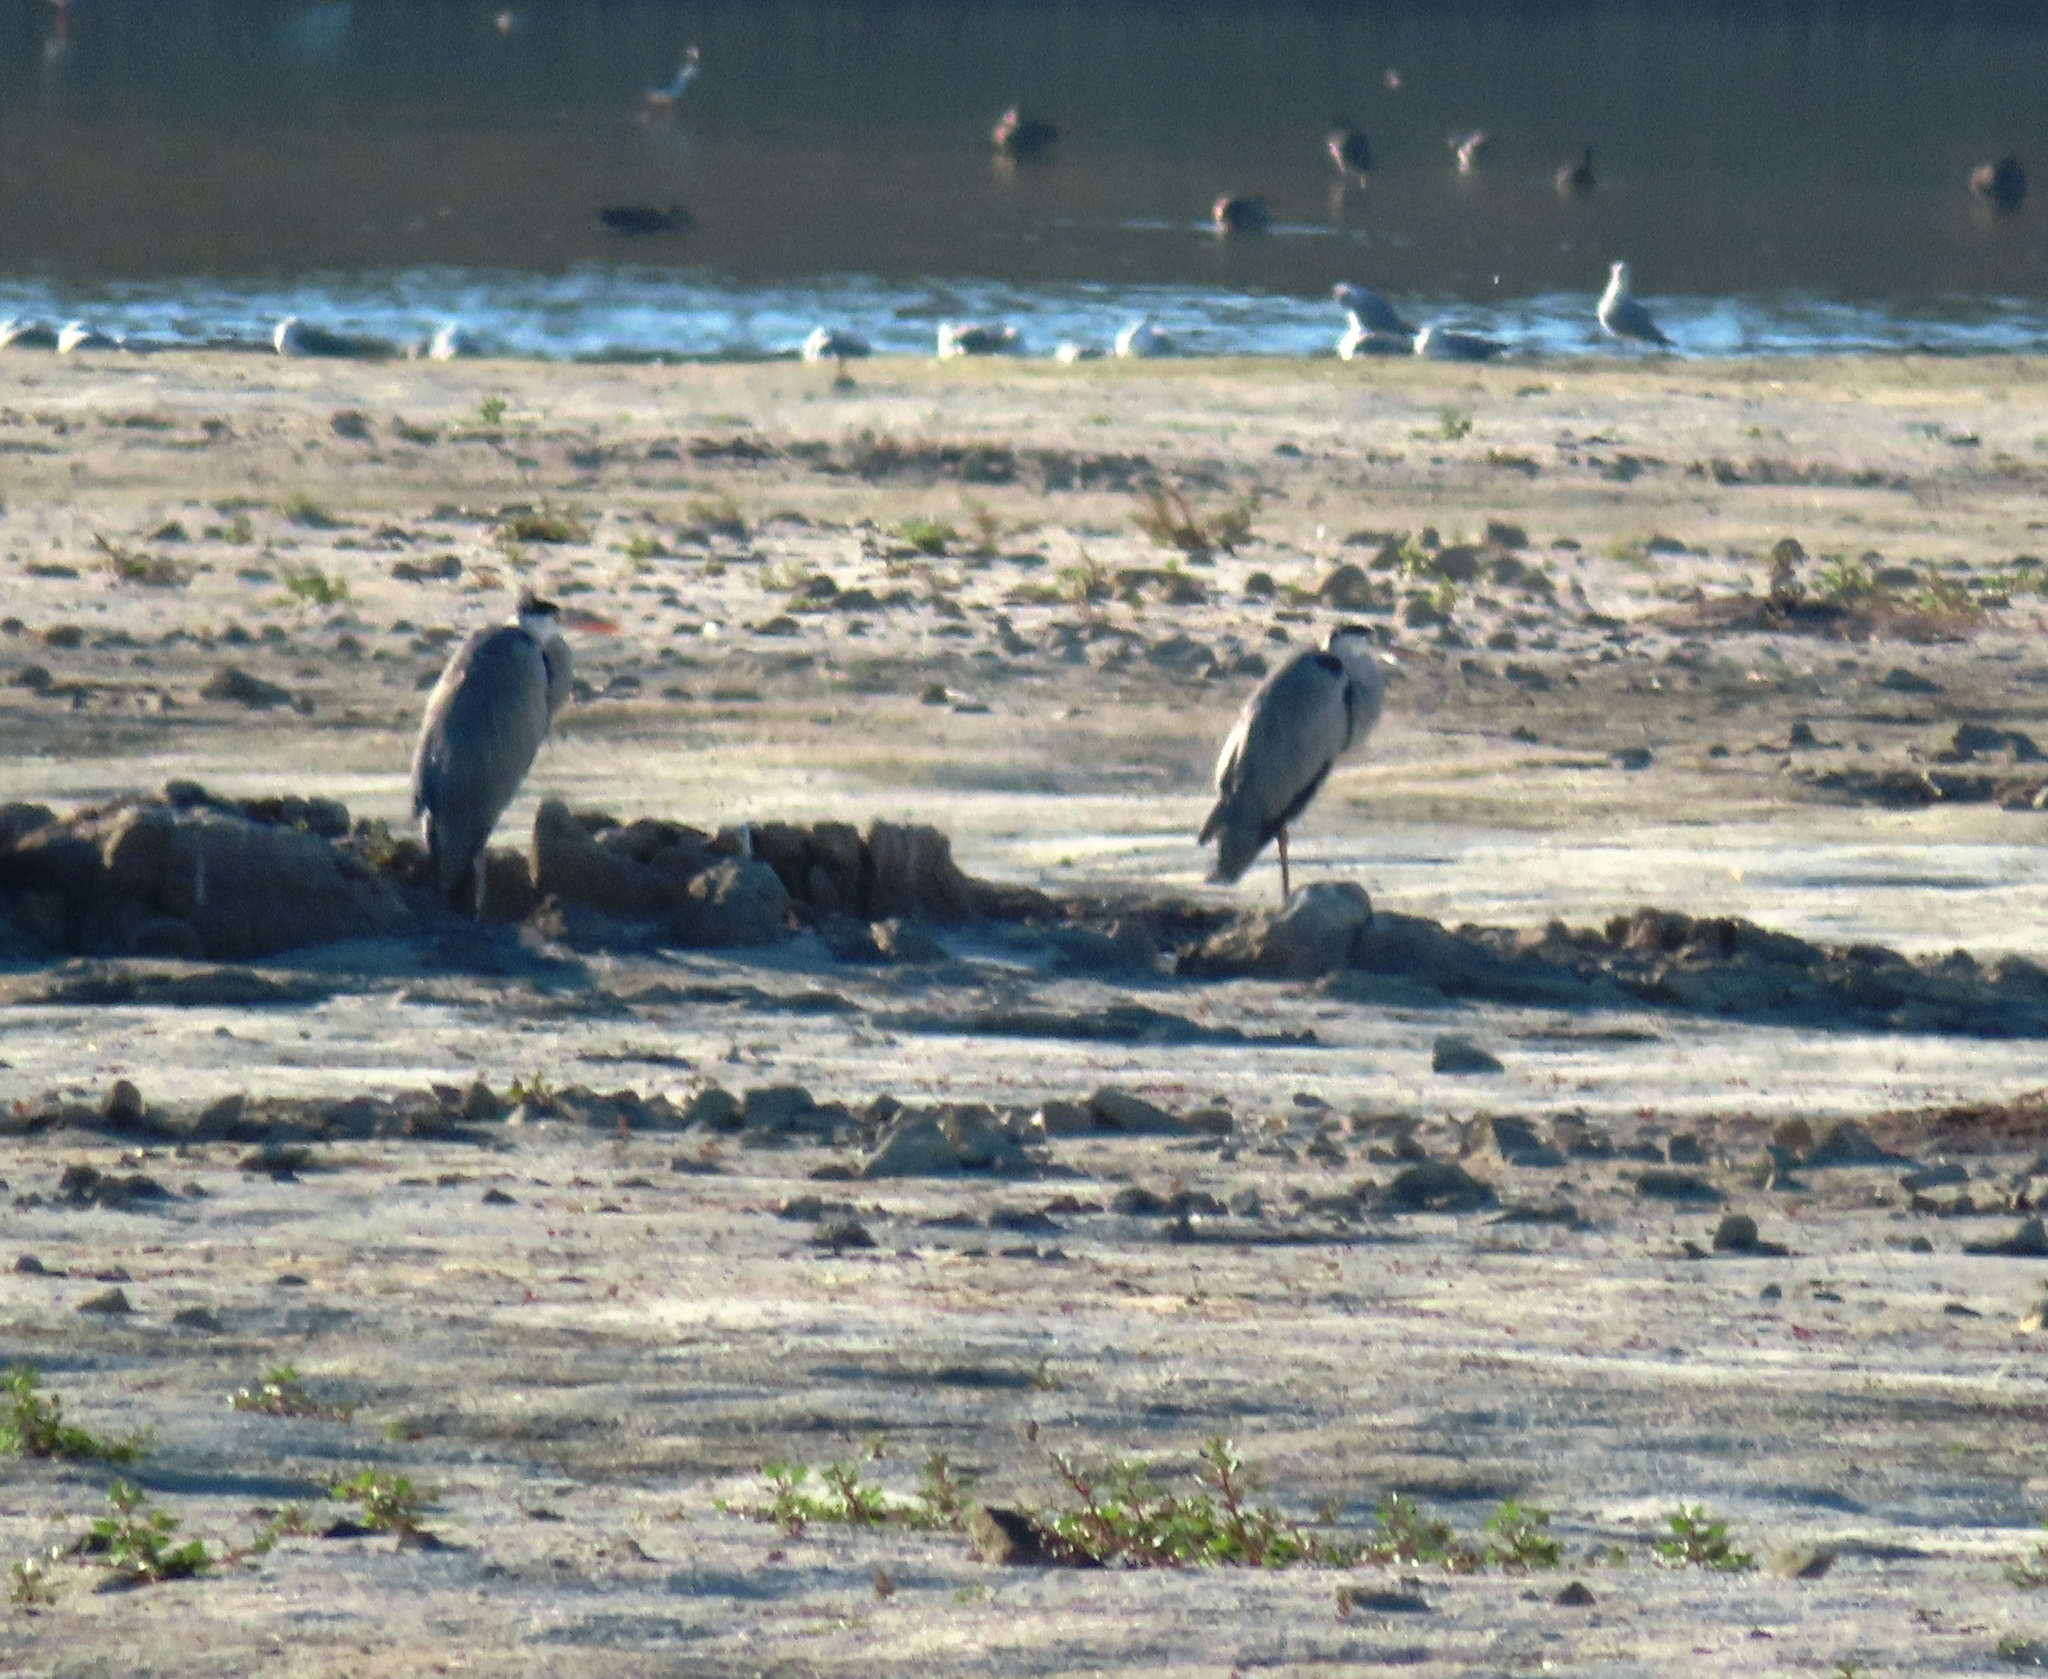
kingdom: Animalia
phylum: Chordata
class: Aves
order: Pelecaniformes
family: Ardeidae
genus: Ardea
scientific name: Ardea cinerea
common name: Grey heron
